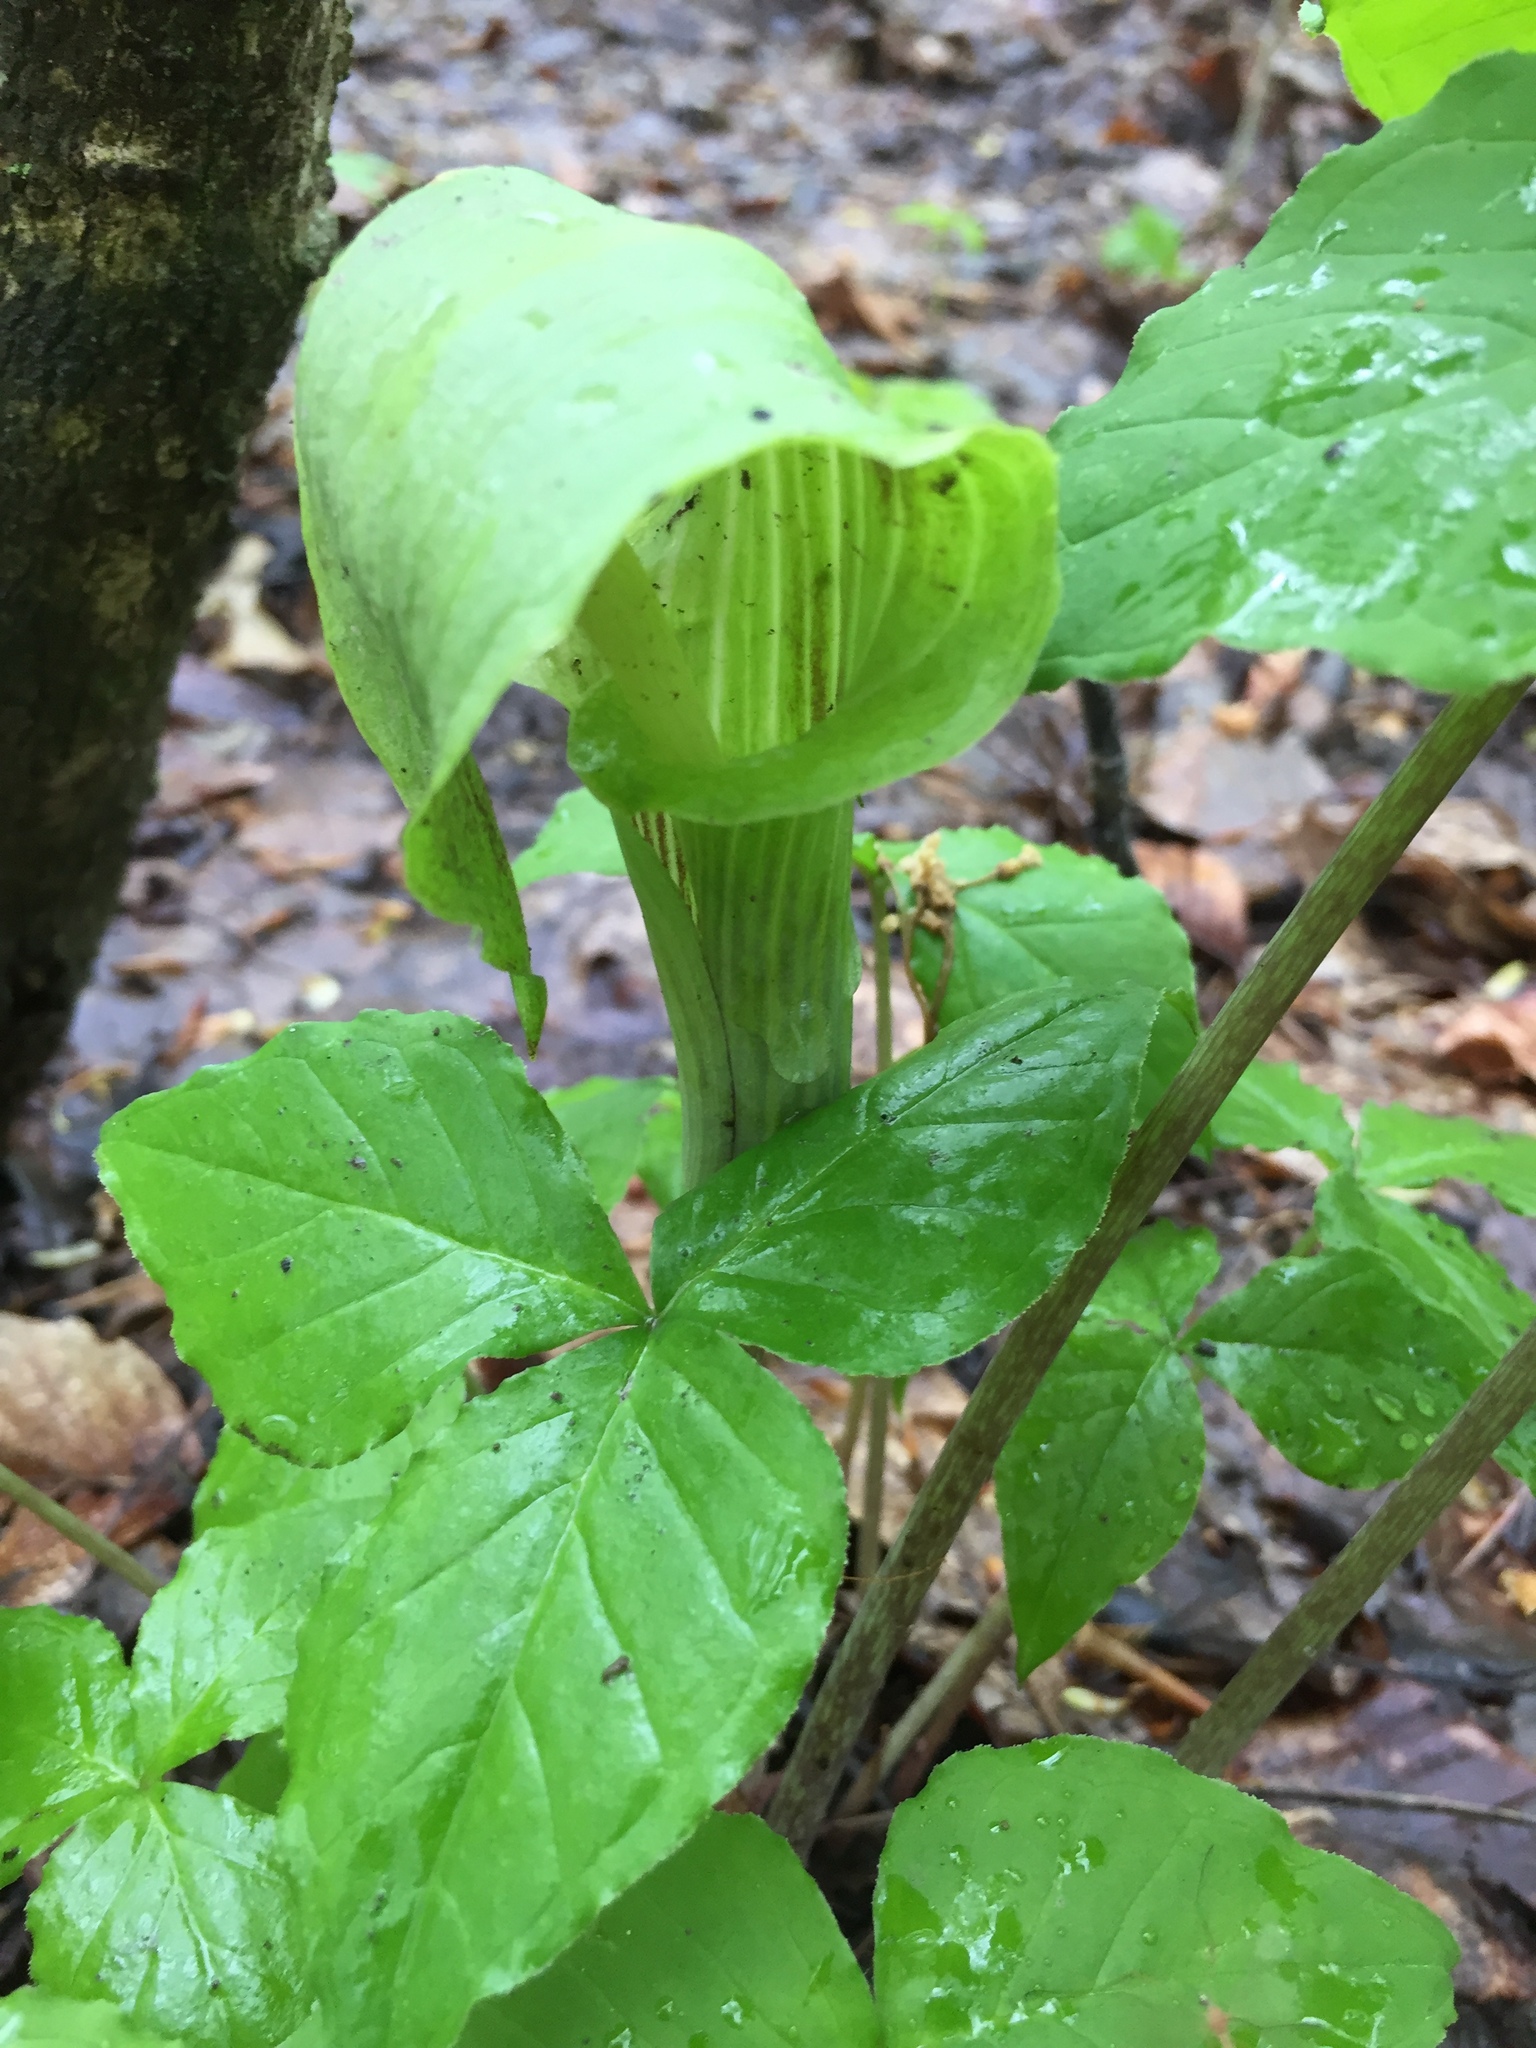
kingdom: Plantae
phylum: Tracheophyta
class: Liliopsida
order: Alismatales
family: Araceae
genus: Arisaema
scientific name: Arisaema triphyllum
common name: Jack-in-the-pulpit
